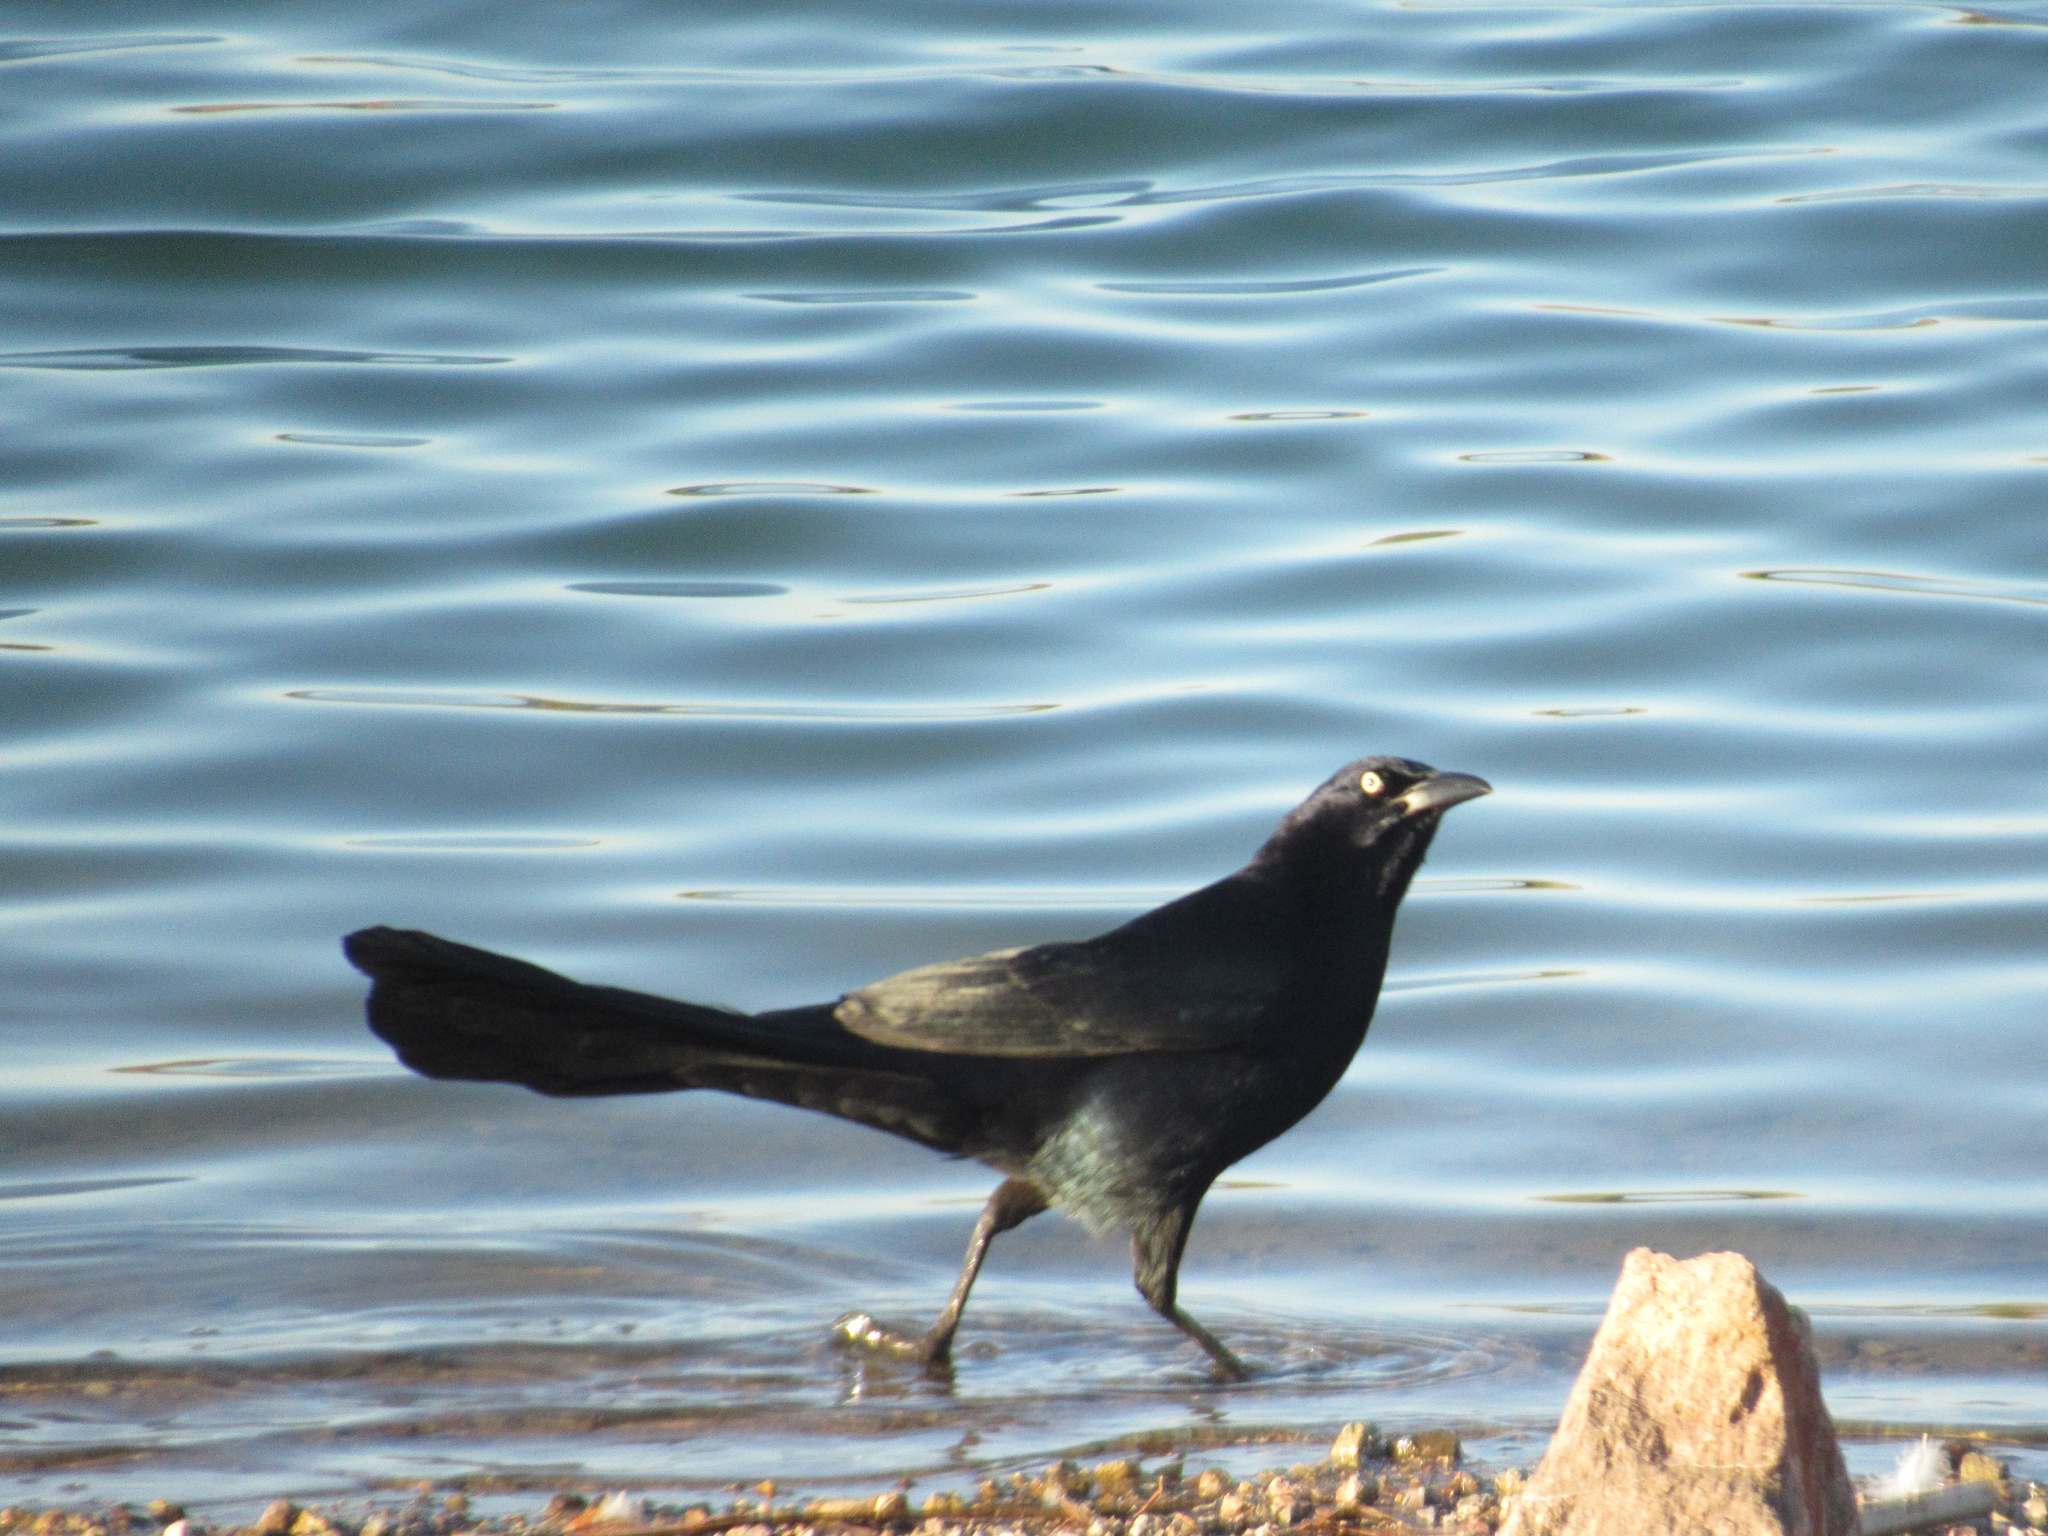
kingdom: Animalia
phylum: Chordata
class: Aves
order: Passeriformes
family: Icteridae
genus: Quiscalus
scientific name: Quiscalus mexicanus
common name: Great-tailed grackle
